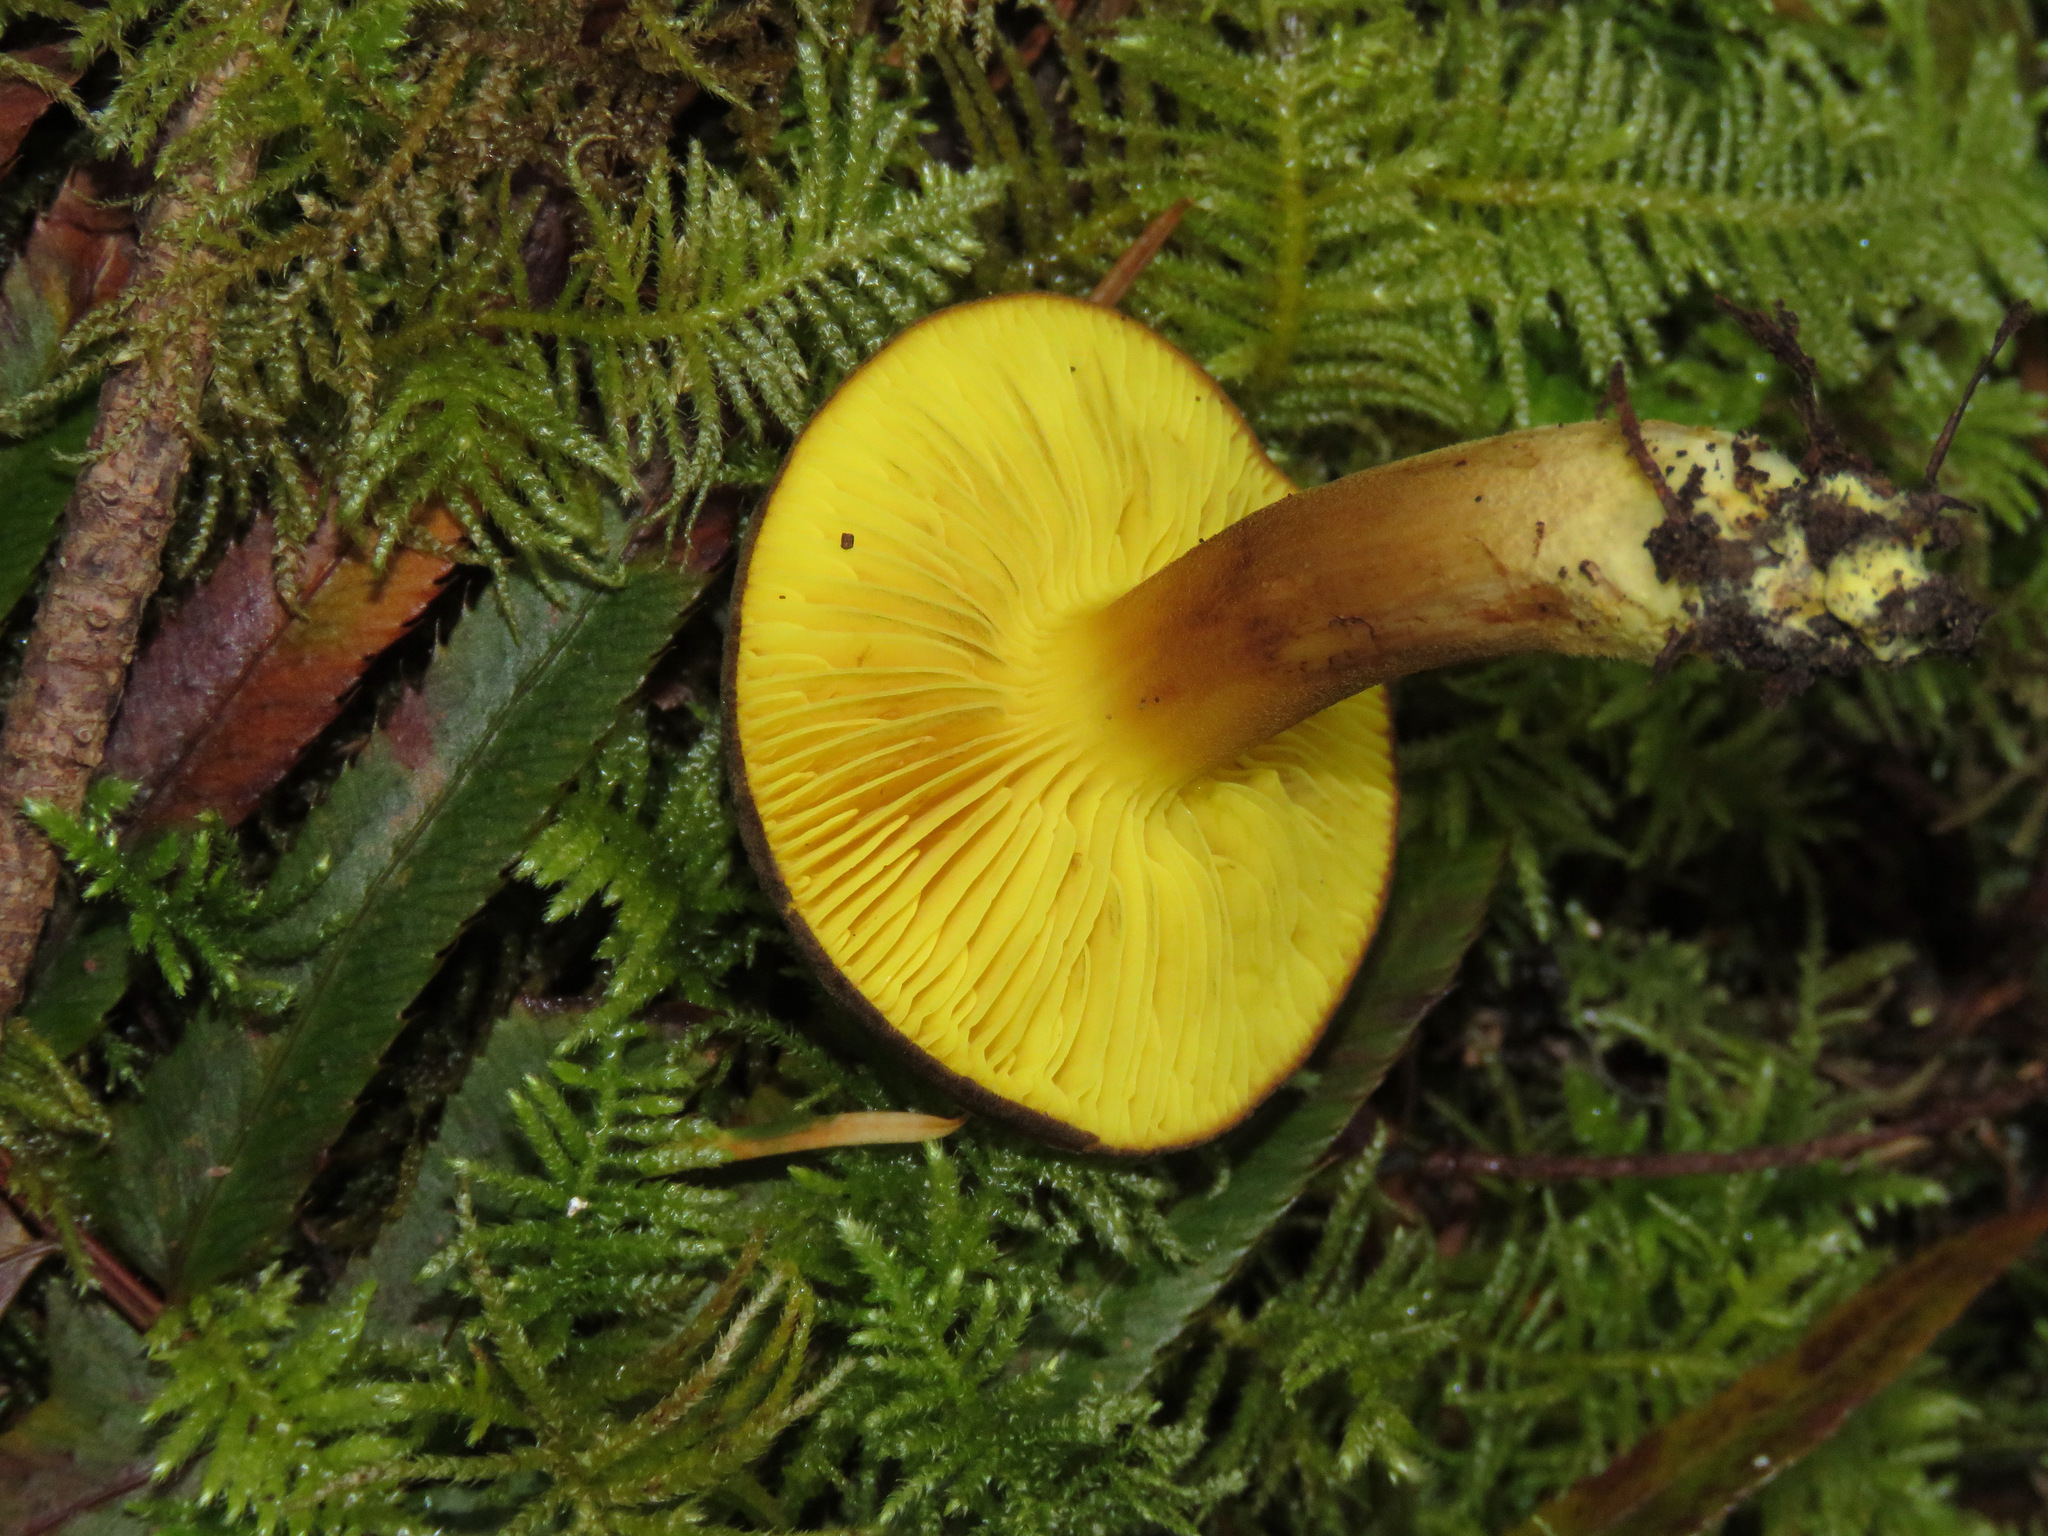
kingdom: Fungi
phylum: Basidiomycota
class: Agaricomycetes
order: Boletales
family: Boletaceae
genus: Phylloporus
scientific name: Phylloporus arenicola
